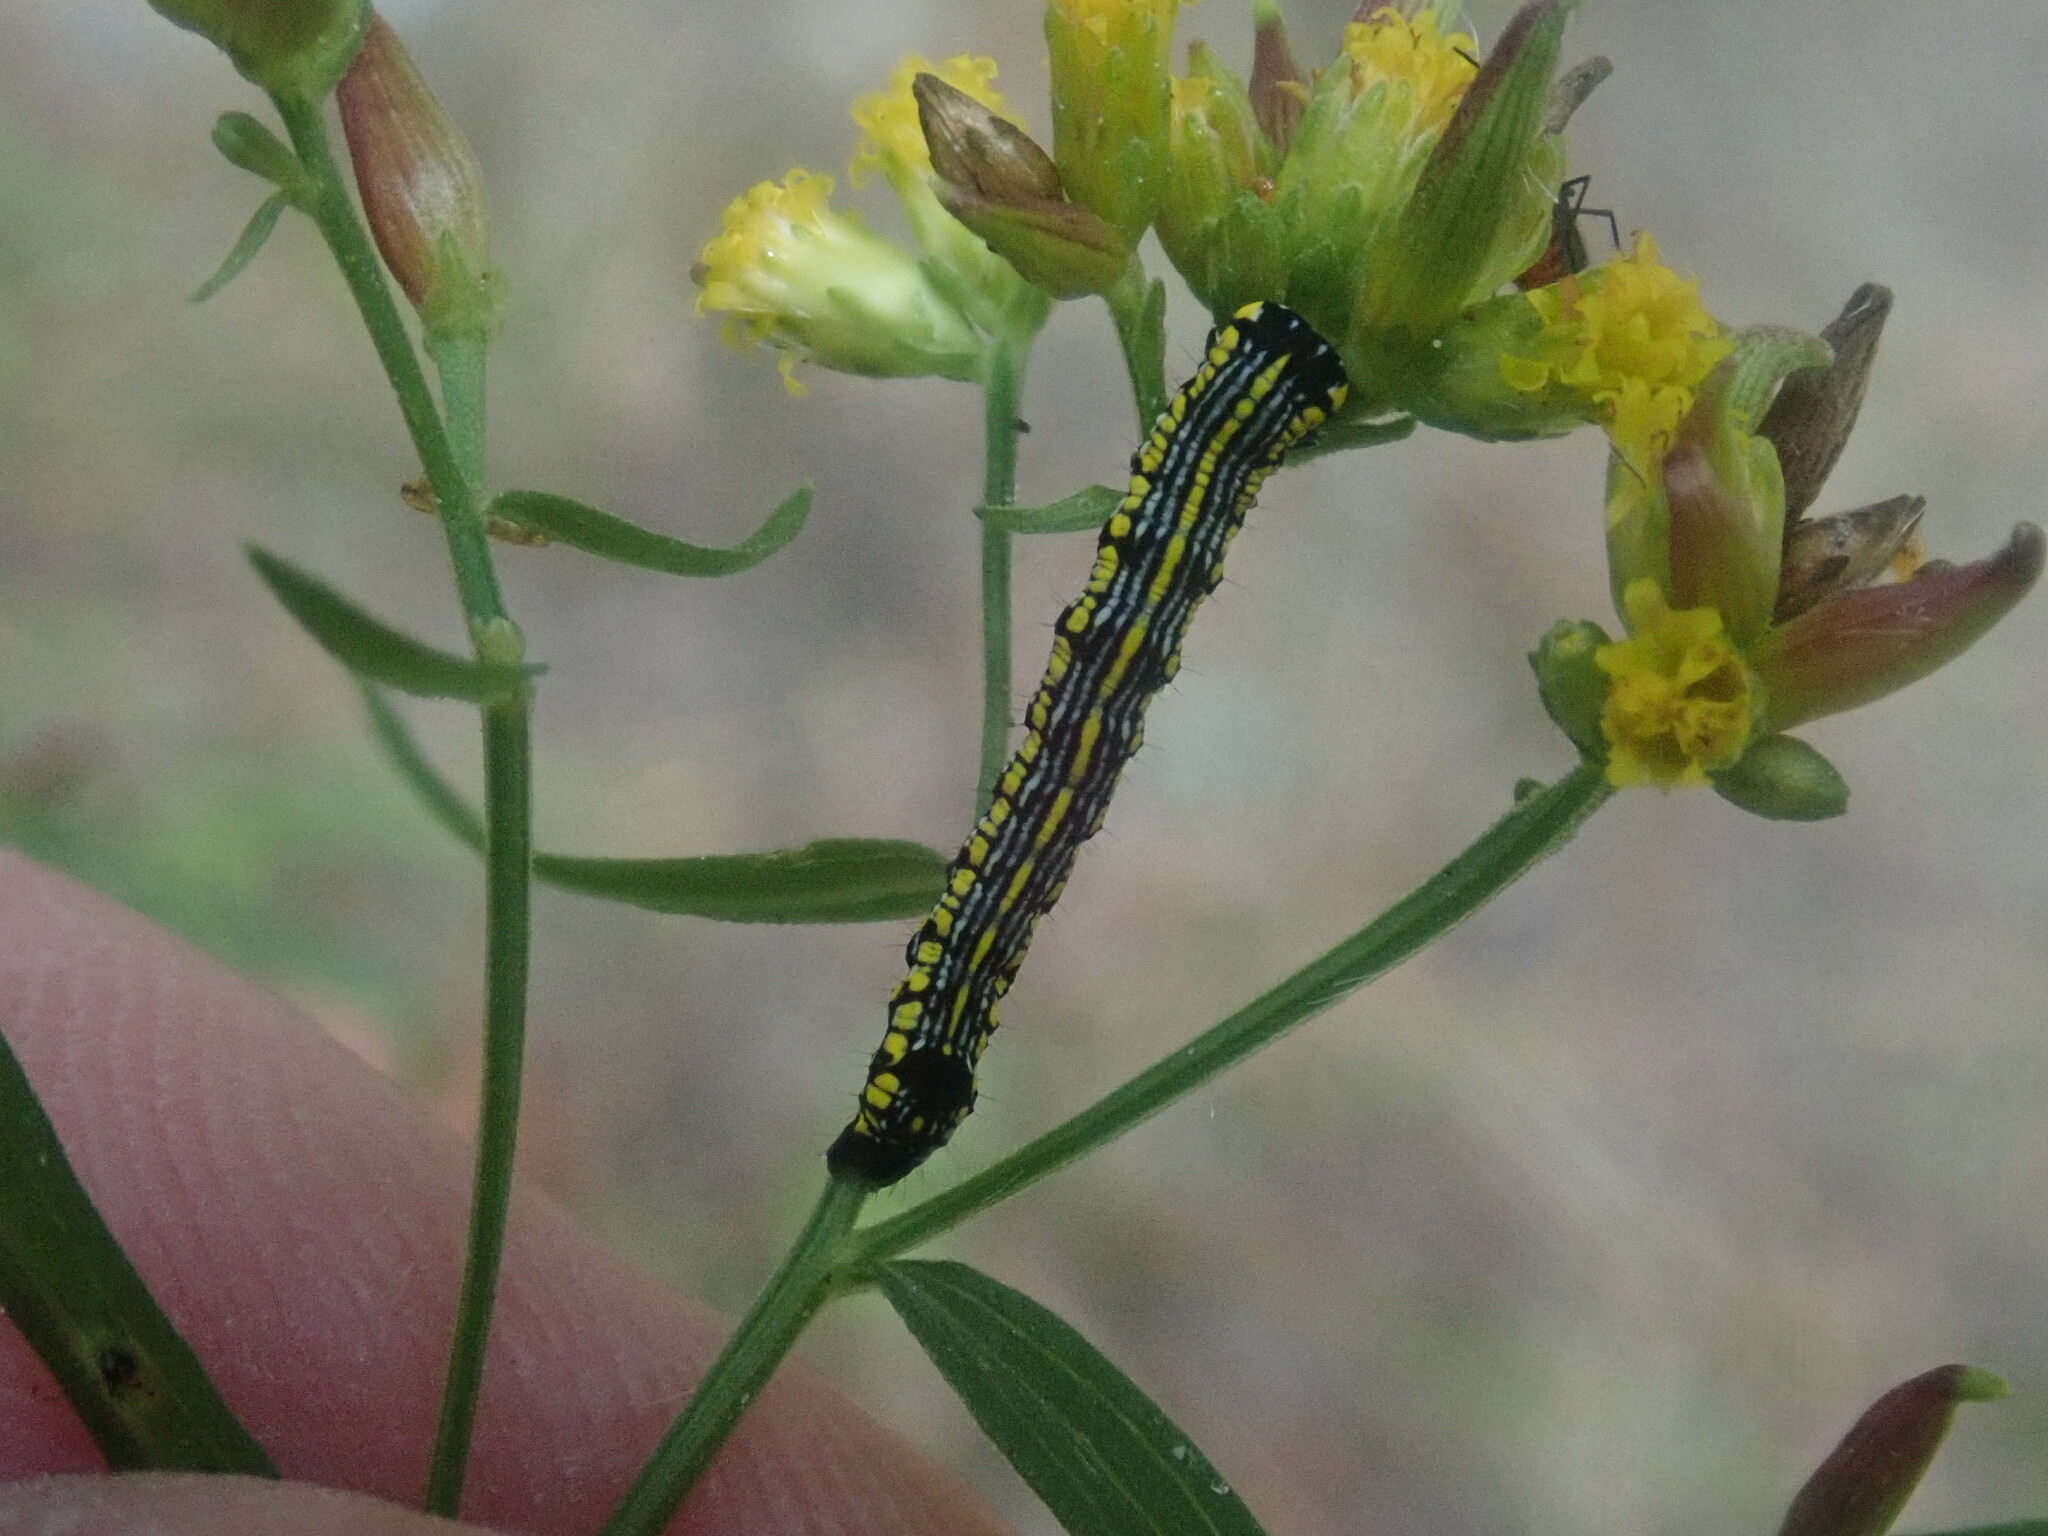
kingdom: Animalia
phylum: Arthropoda
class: Insecta
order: Lepidoptera
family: Noctuidae
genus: Cucullia
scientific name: Cucullia convexipennis
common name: Brown-hooded owlet
